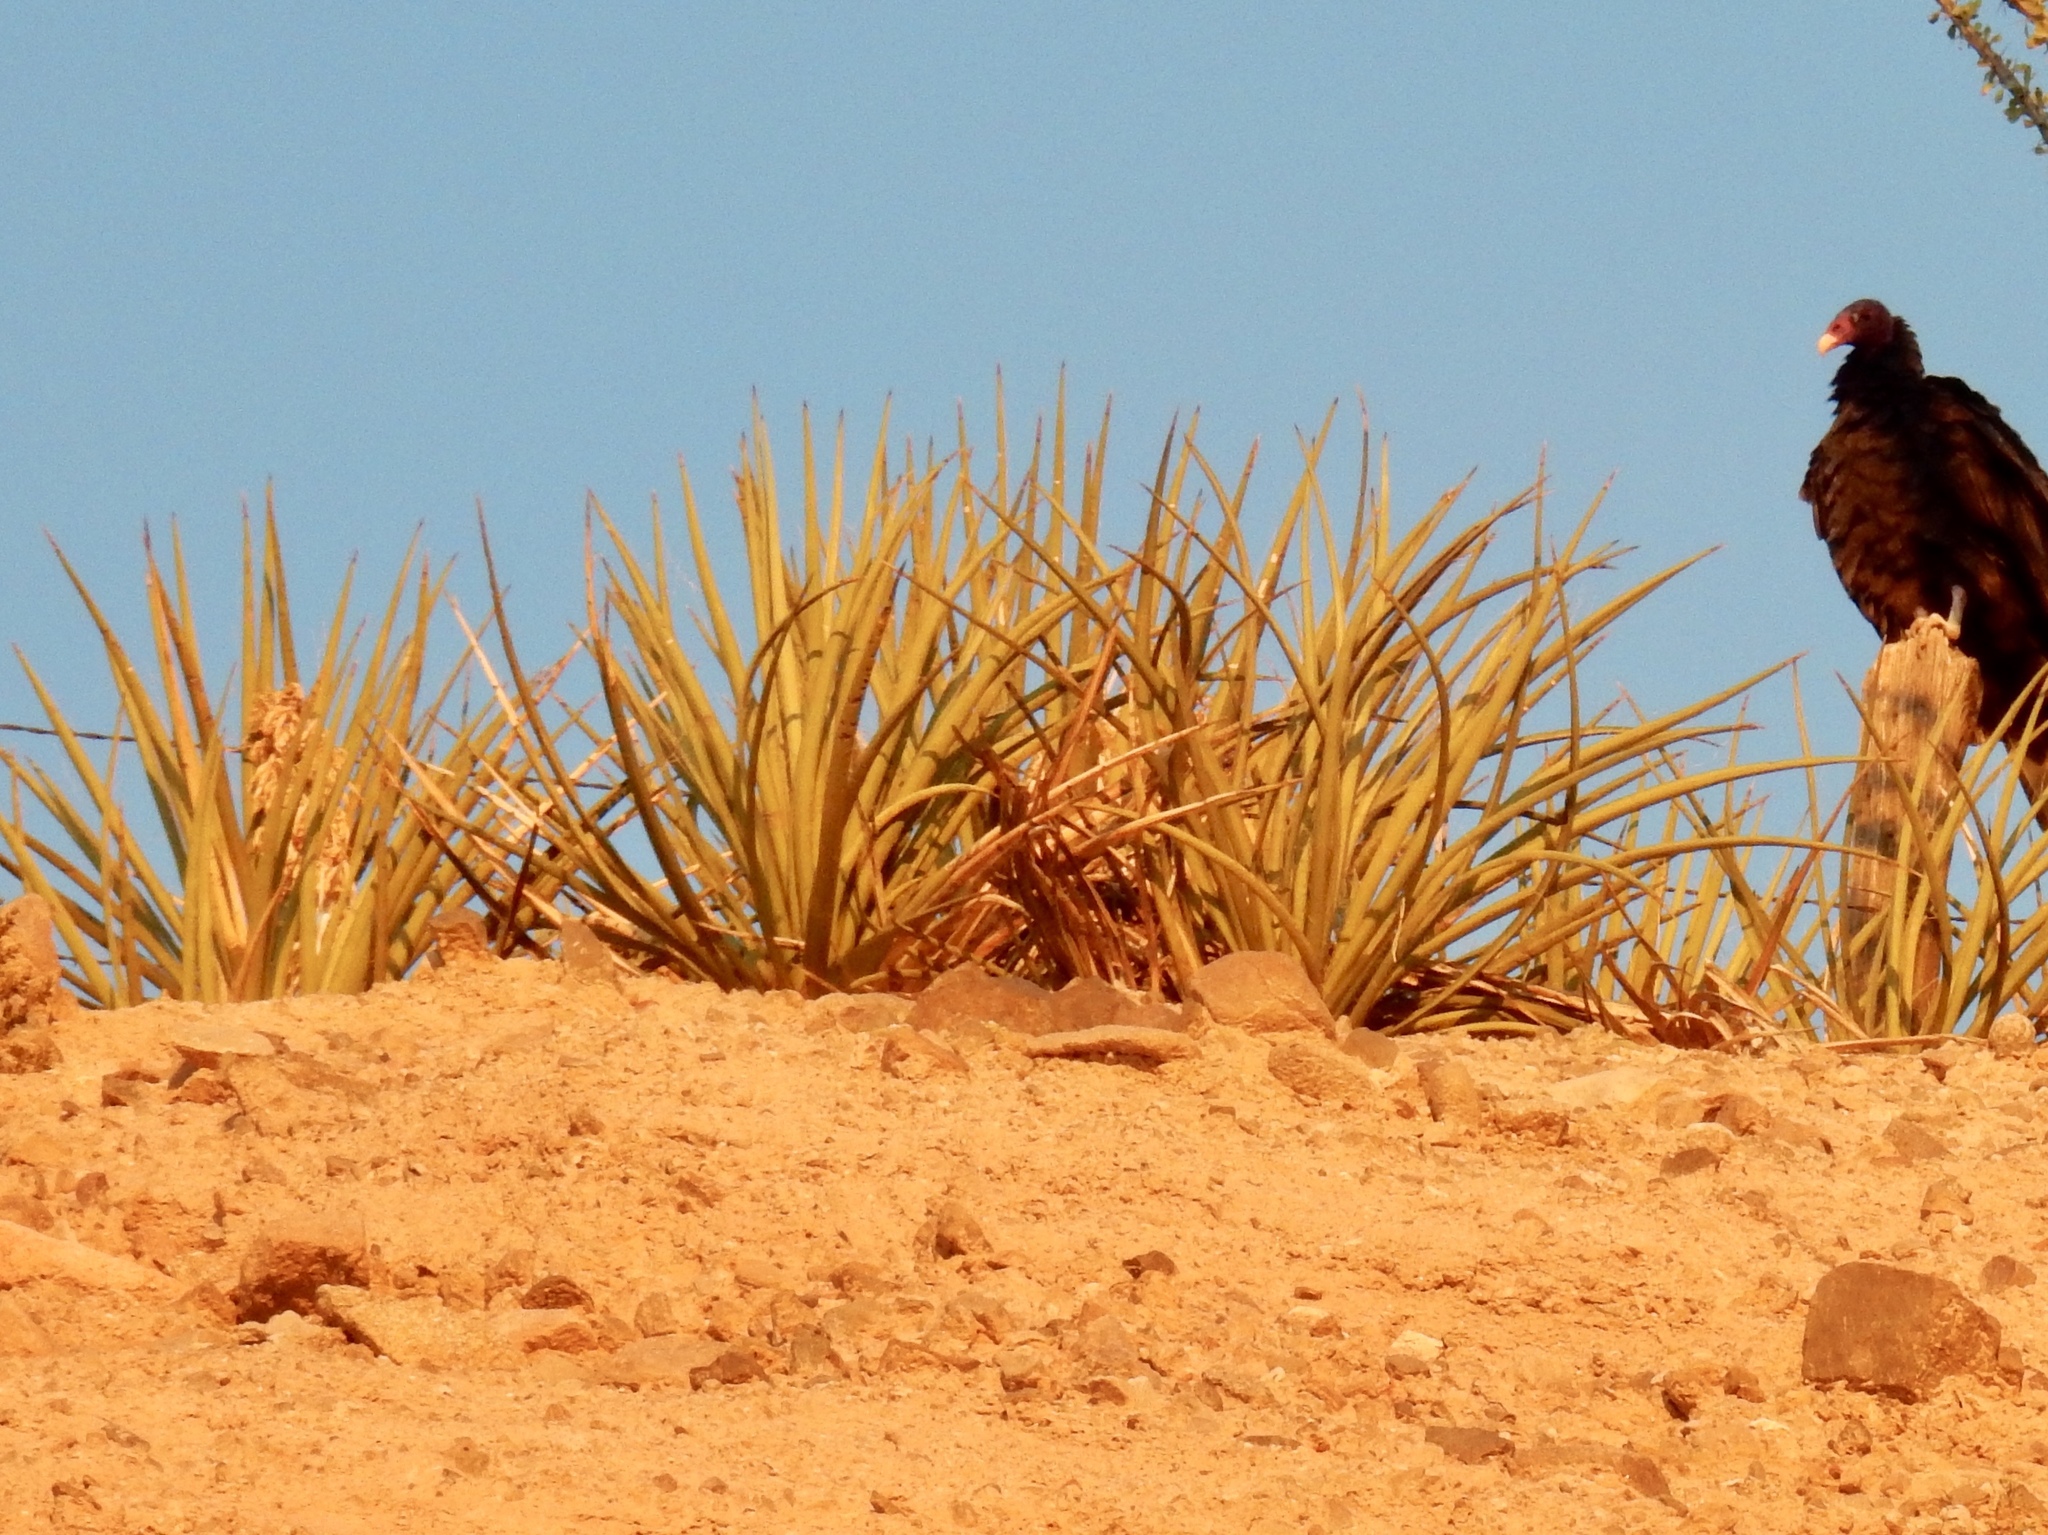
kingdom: Plantae
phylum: Tracheophyta
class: Liliopsida
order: Asparagales
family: Asparagaceae
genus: Yucca
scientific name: Yucca baccata
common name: Banana yucca
